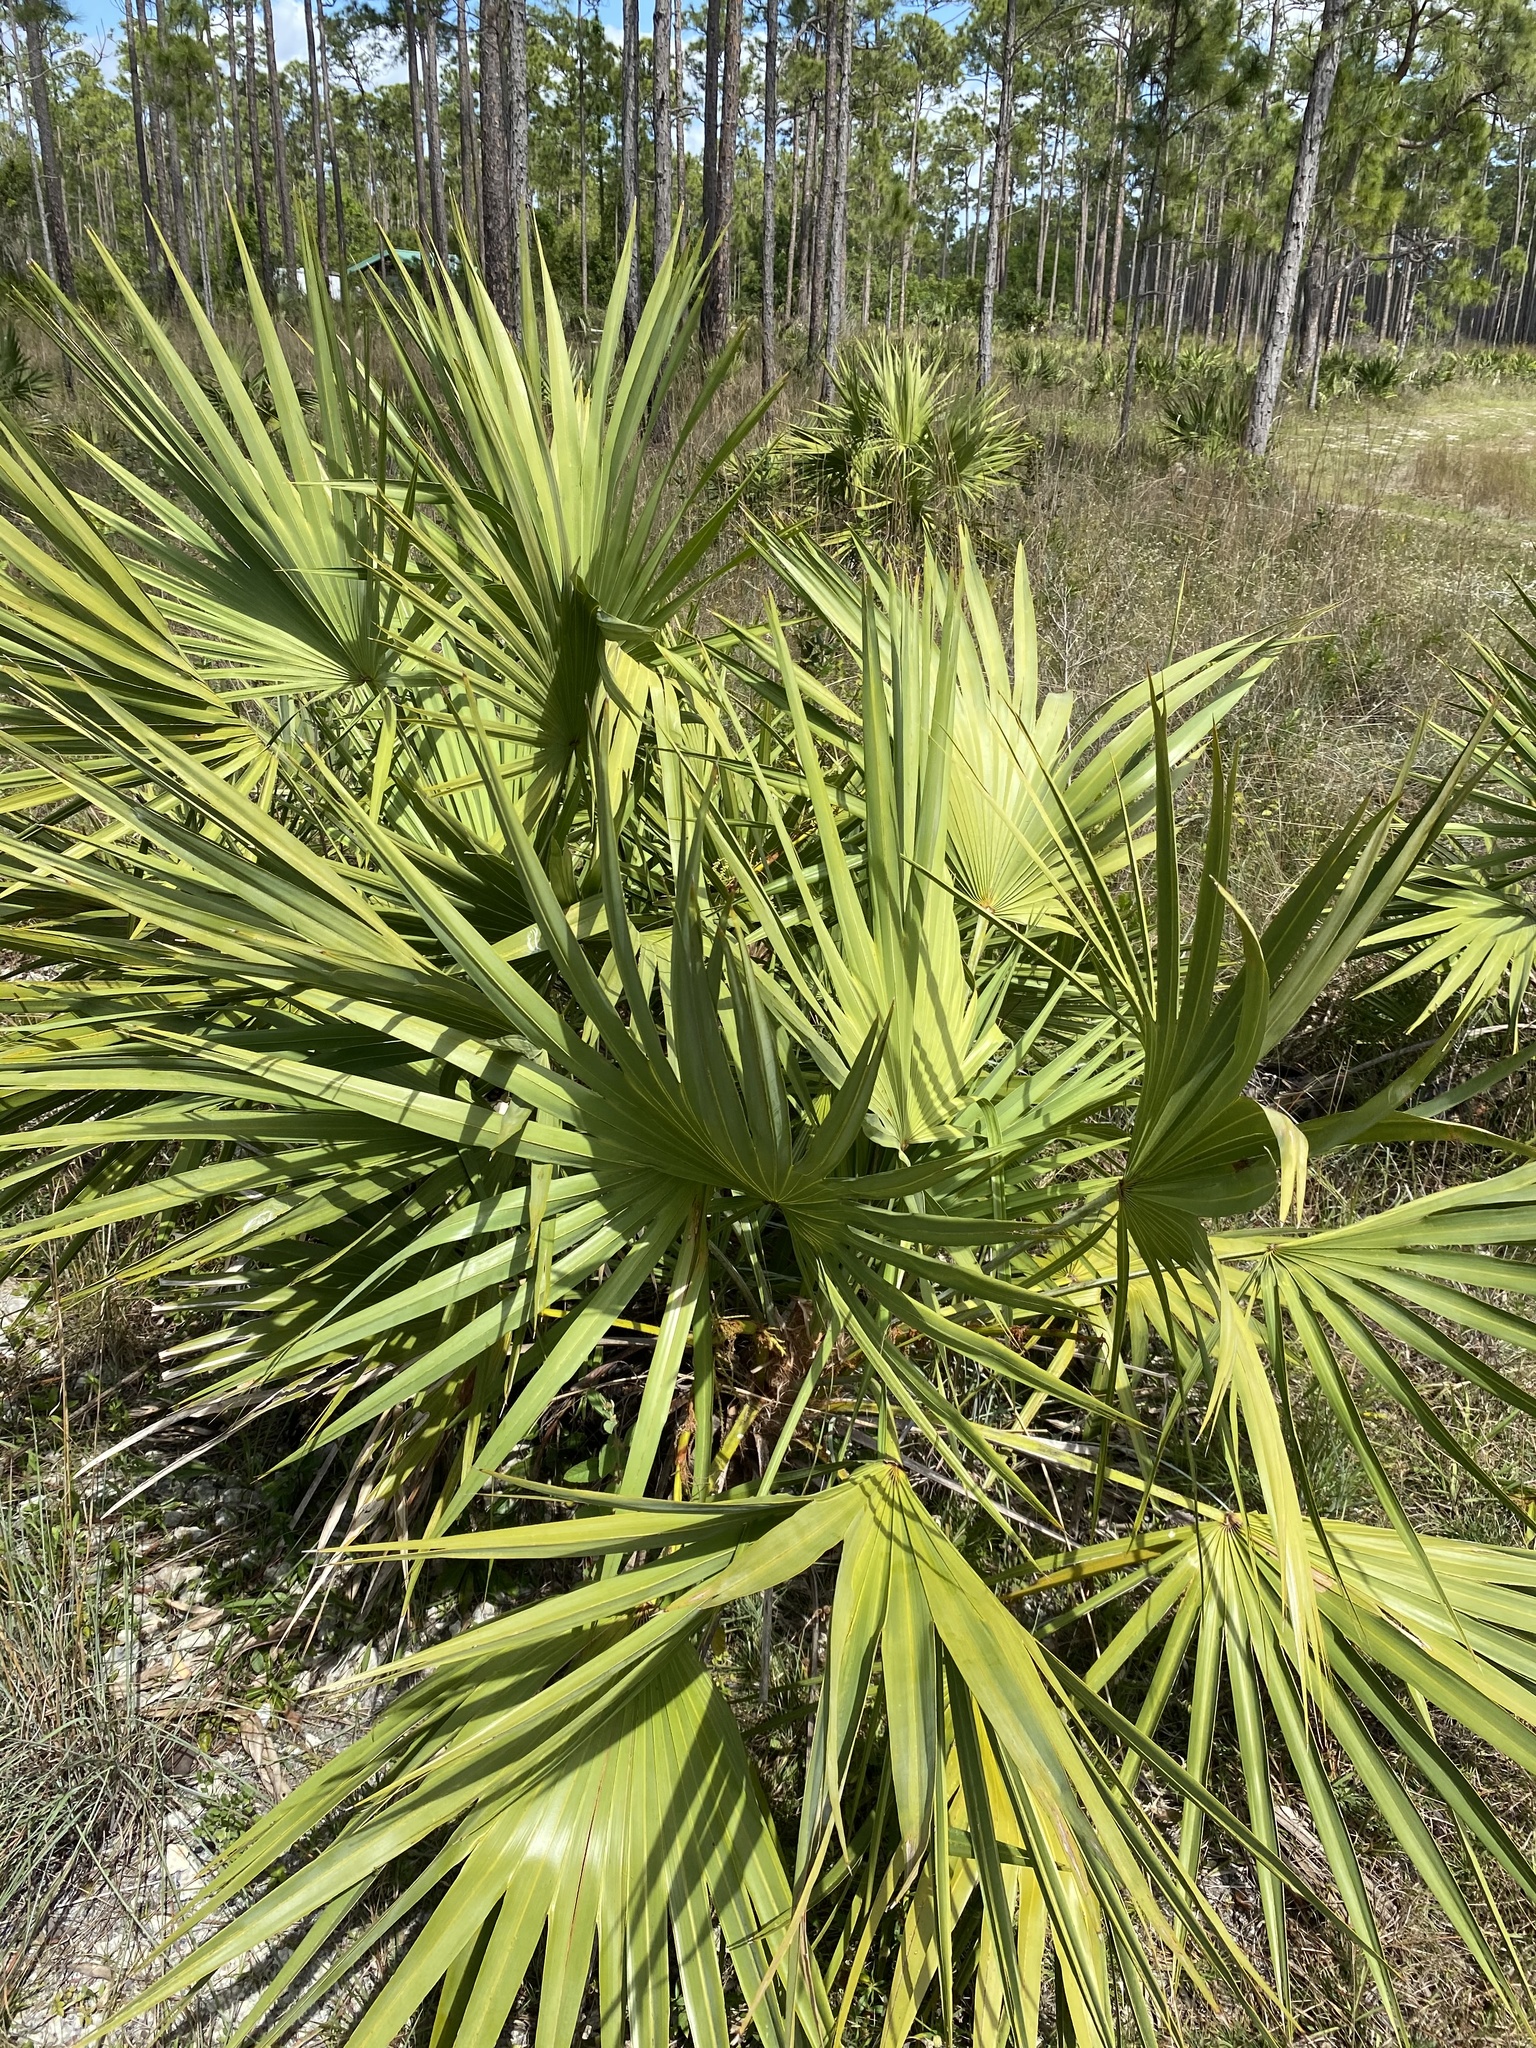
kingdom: Plantae
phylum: Tracheophyta
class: Liliopsida
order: Arecales
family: Arecaceae
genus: Serenoa
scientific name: Serenoa repens
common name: Saw-palmetto
